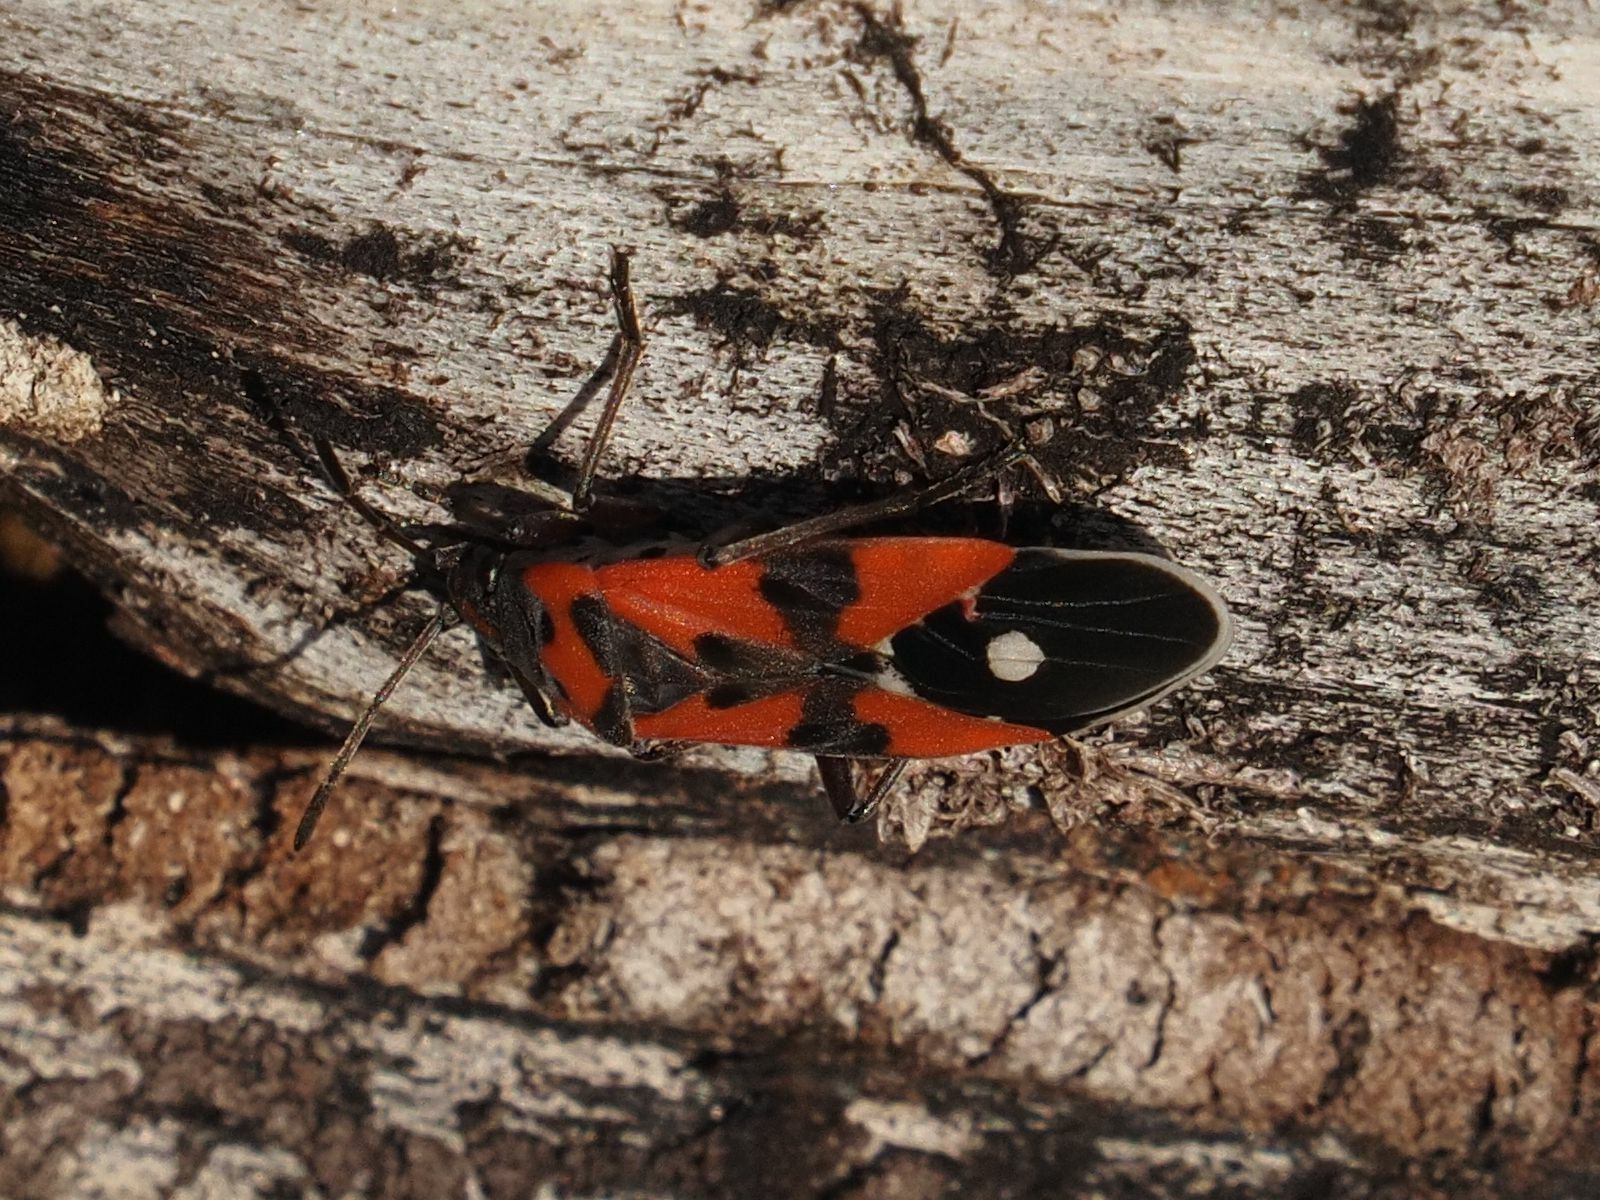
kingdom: Animalia
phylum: Arthropoda
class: Insecta
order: Hemiptera
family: Lygaeidae
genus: Lygaeus
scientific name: Lygaeus equestris
